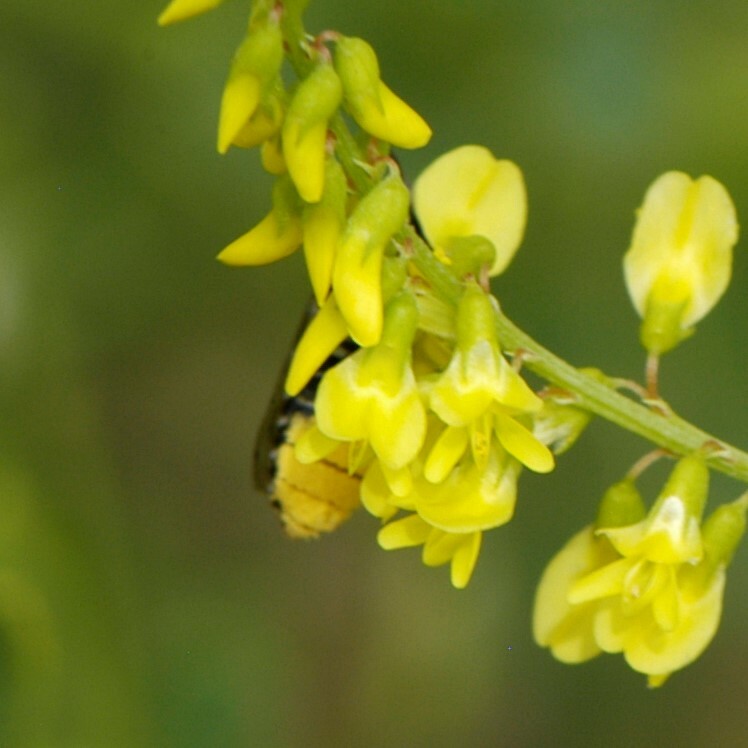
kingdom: Animalia
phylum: Arthropoda
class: Insecta
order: Hymenoptera
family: Megachilidae
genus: Megachile
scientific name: Megachile
